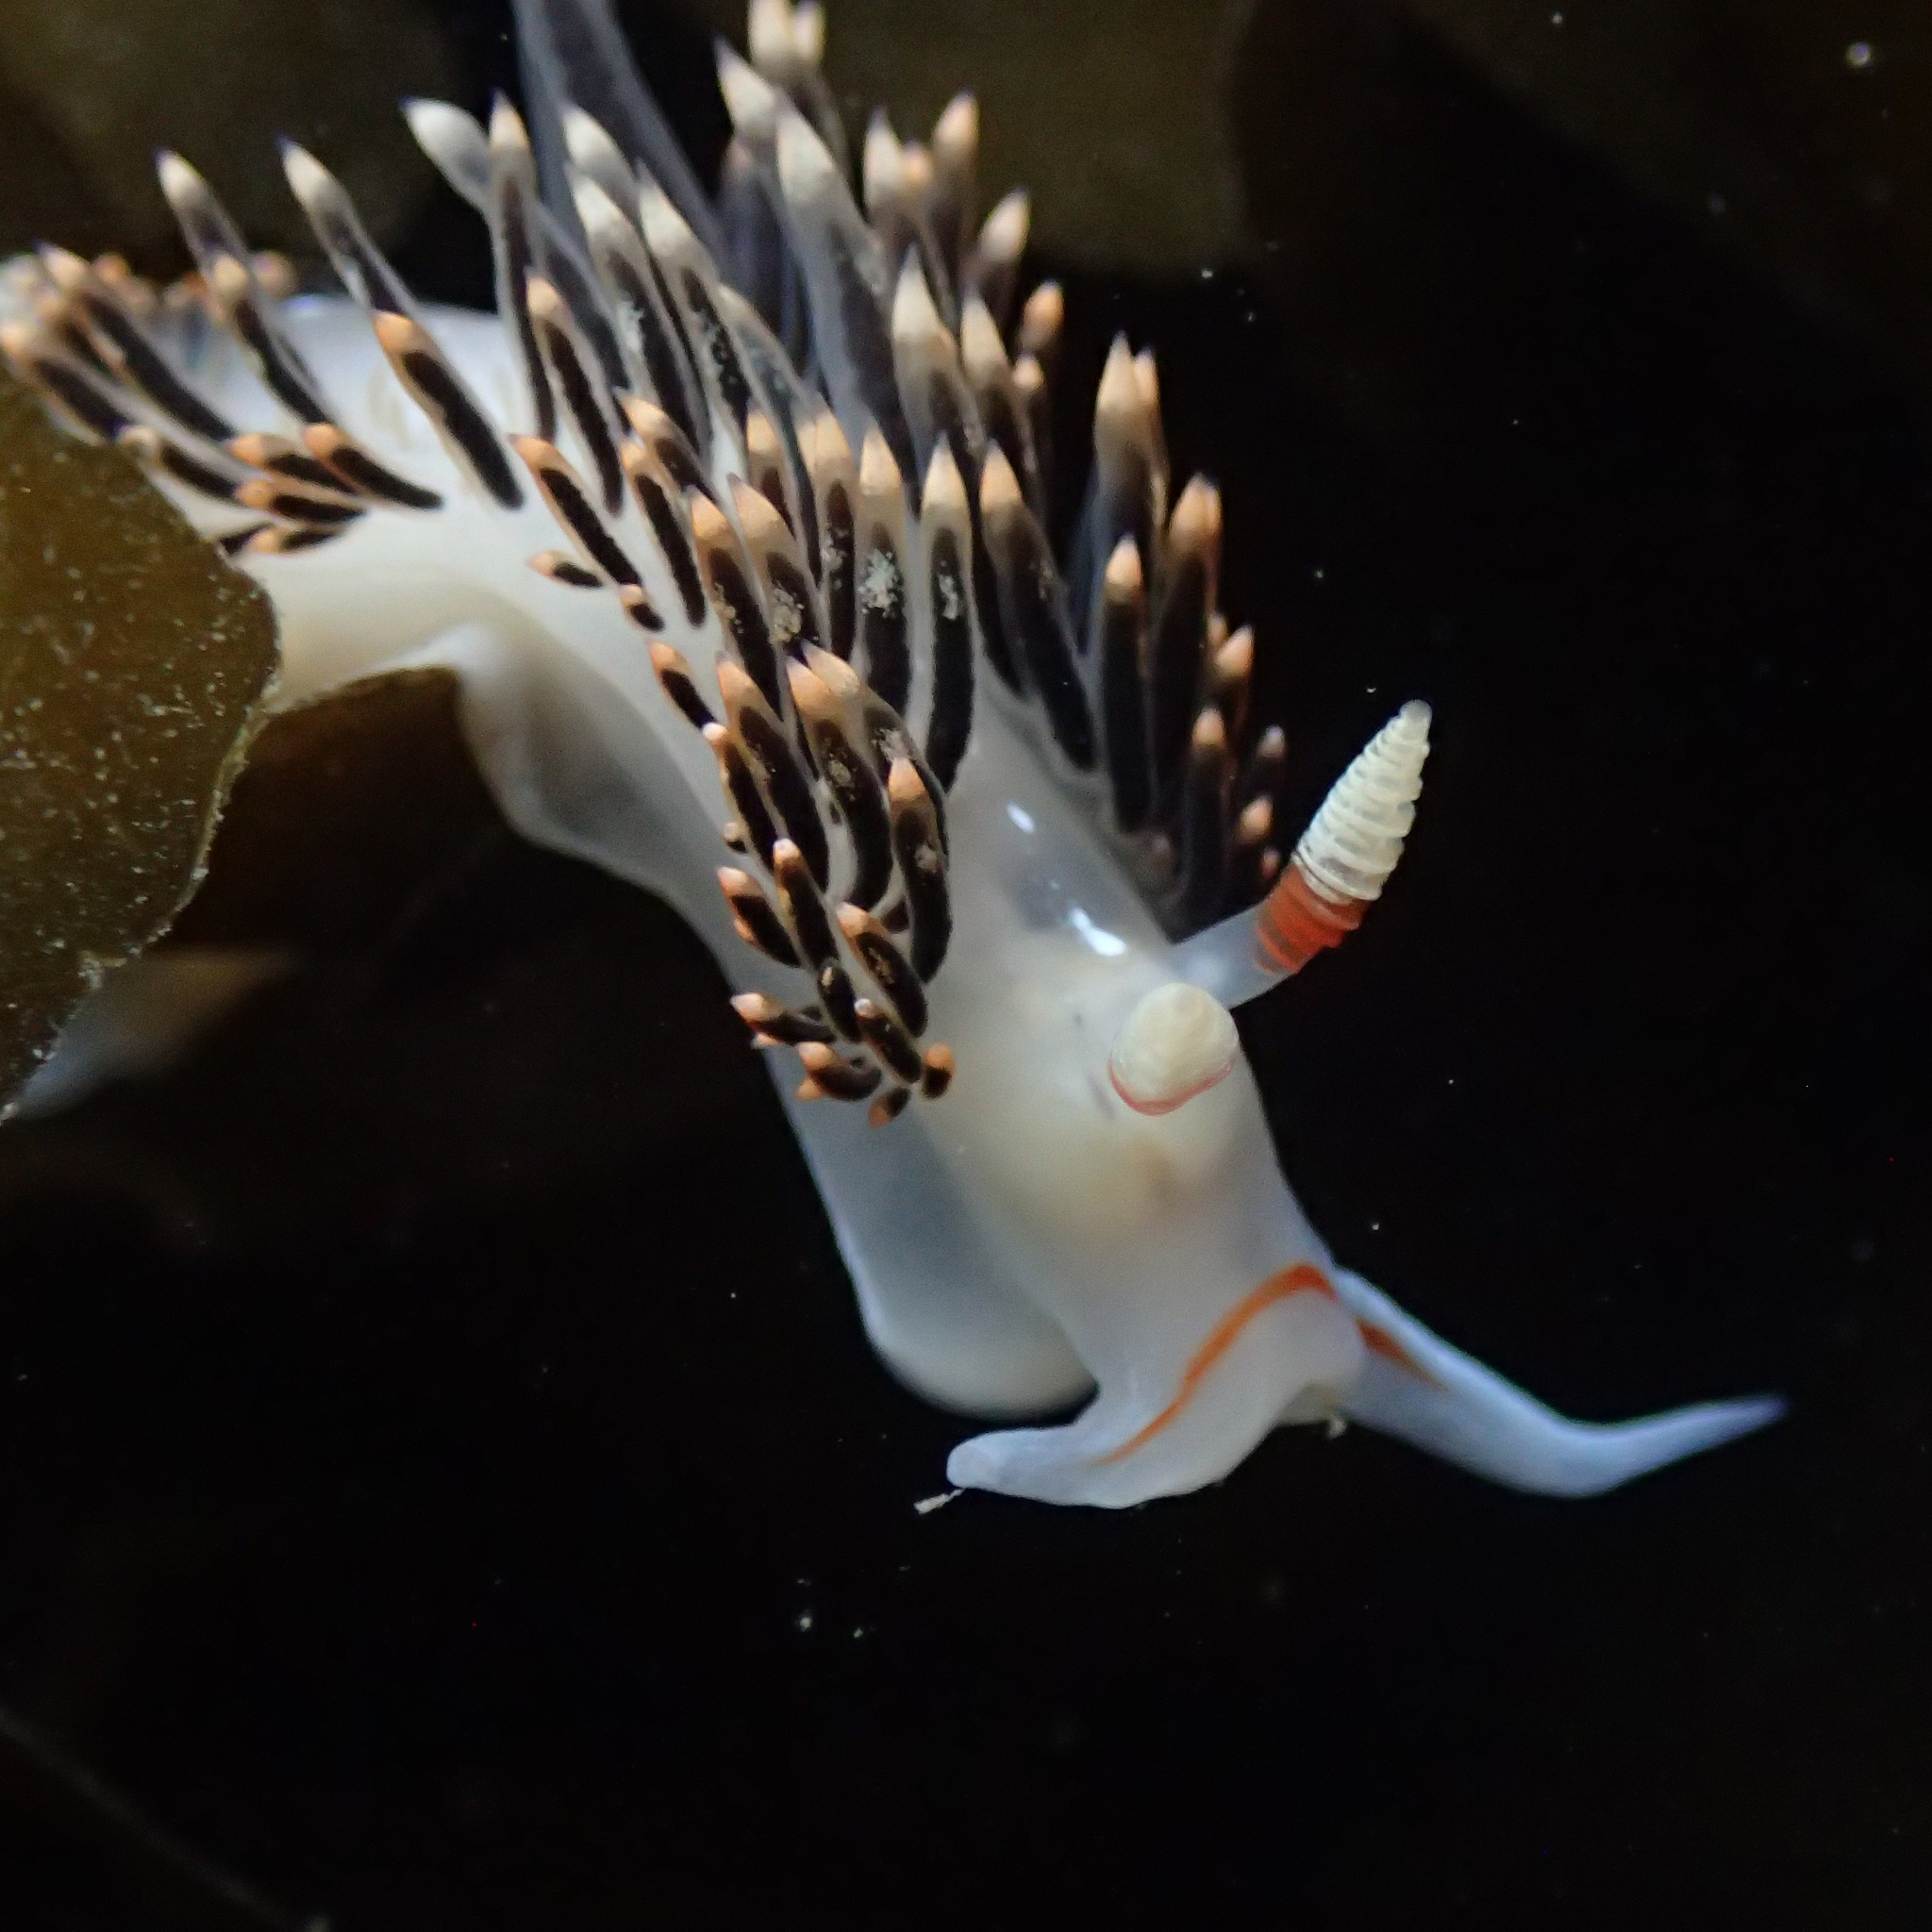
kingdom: Animalia
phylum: Mollusca
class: Gastropoda
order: Nudibranchia
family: Facelinidae
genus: Phidiana
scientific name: Phidiana hiltoni
